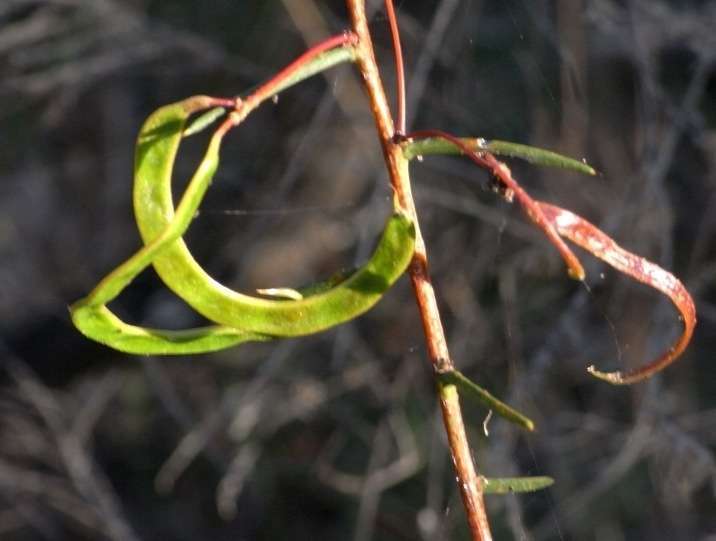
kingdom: Plantae
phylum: Tracheophyta
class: Magnoliopsida
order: Fabales
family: Fabaceae
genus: Acacia
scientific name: Acacia genistifolia
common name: Early wattle
